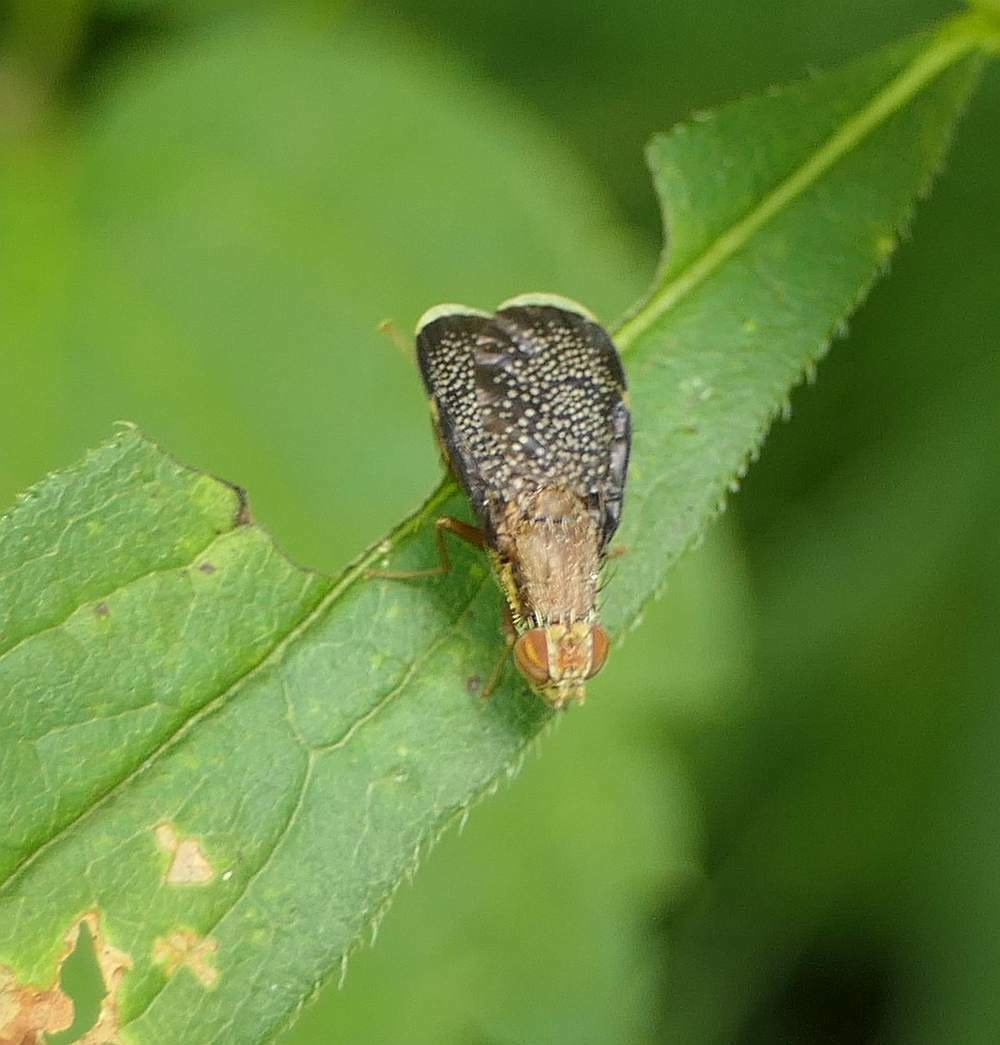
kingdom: Animalia
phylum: Arthropoda
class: Insecta
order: Diptera
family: Tephritidae
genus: Eutreta
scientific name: Eutreta novaeboracensis
